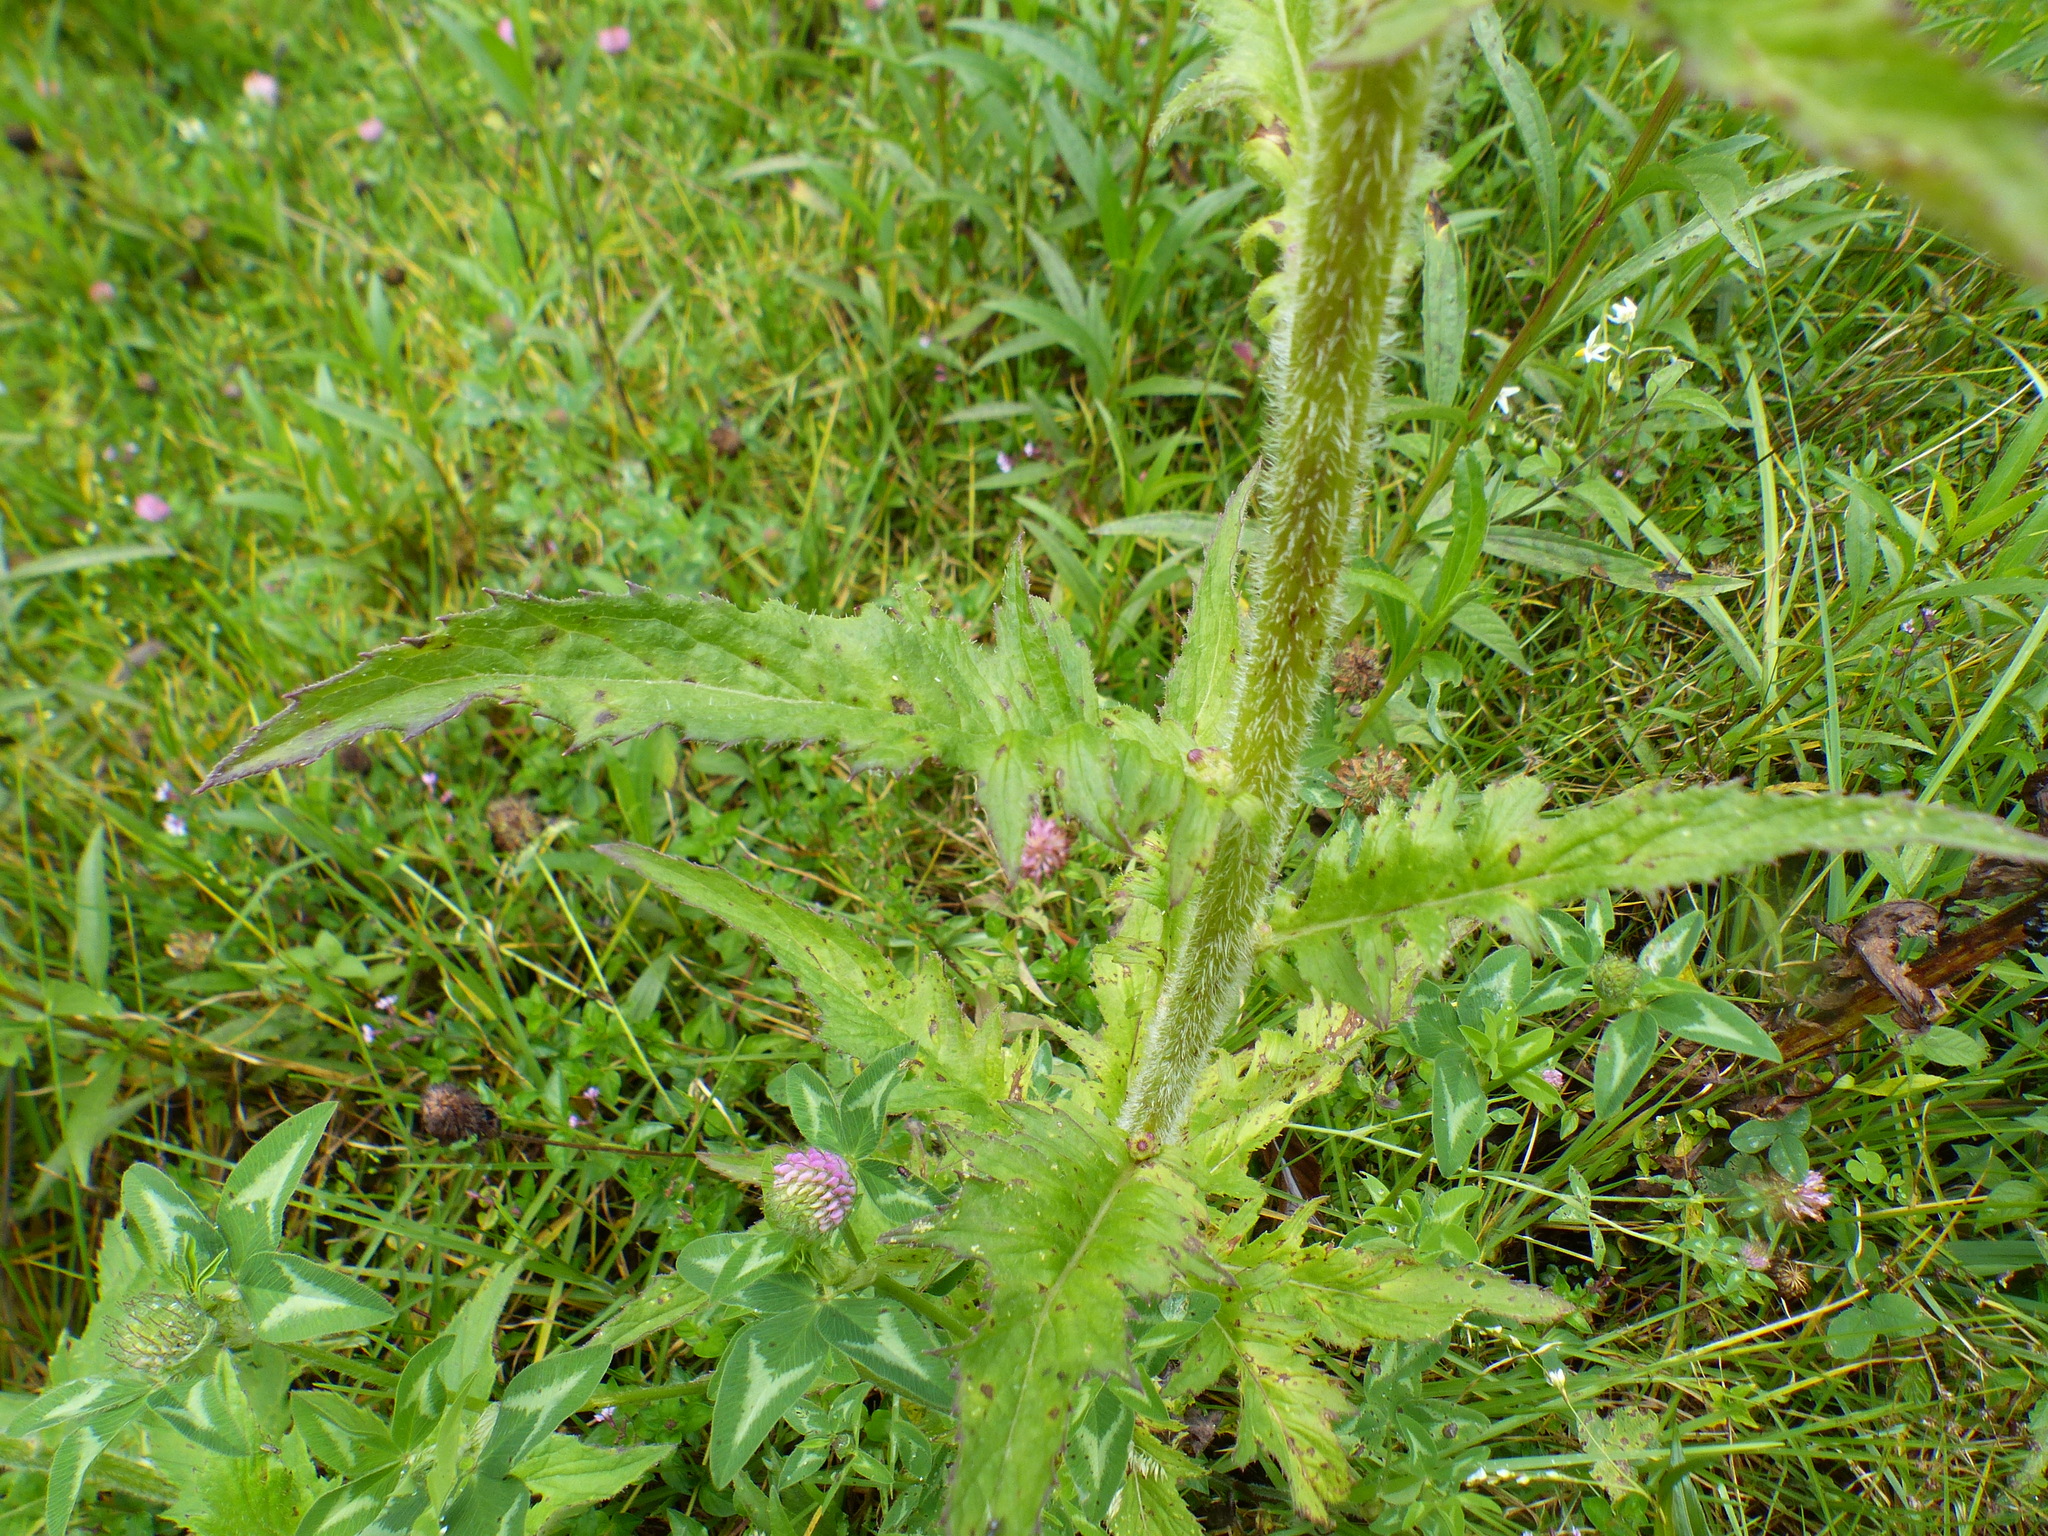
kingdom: Plantae
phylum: Tracheophyta
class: Magnoliopsida
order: Asterales
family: Asteraceae
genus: Erechtites
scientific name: Erechtites valerianifolius
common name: Tropical burnweed
